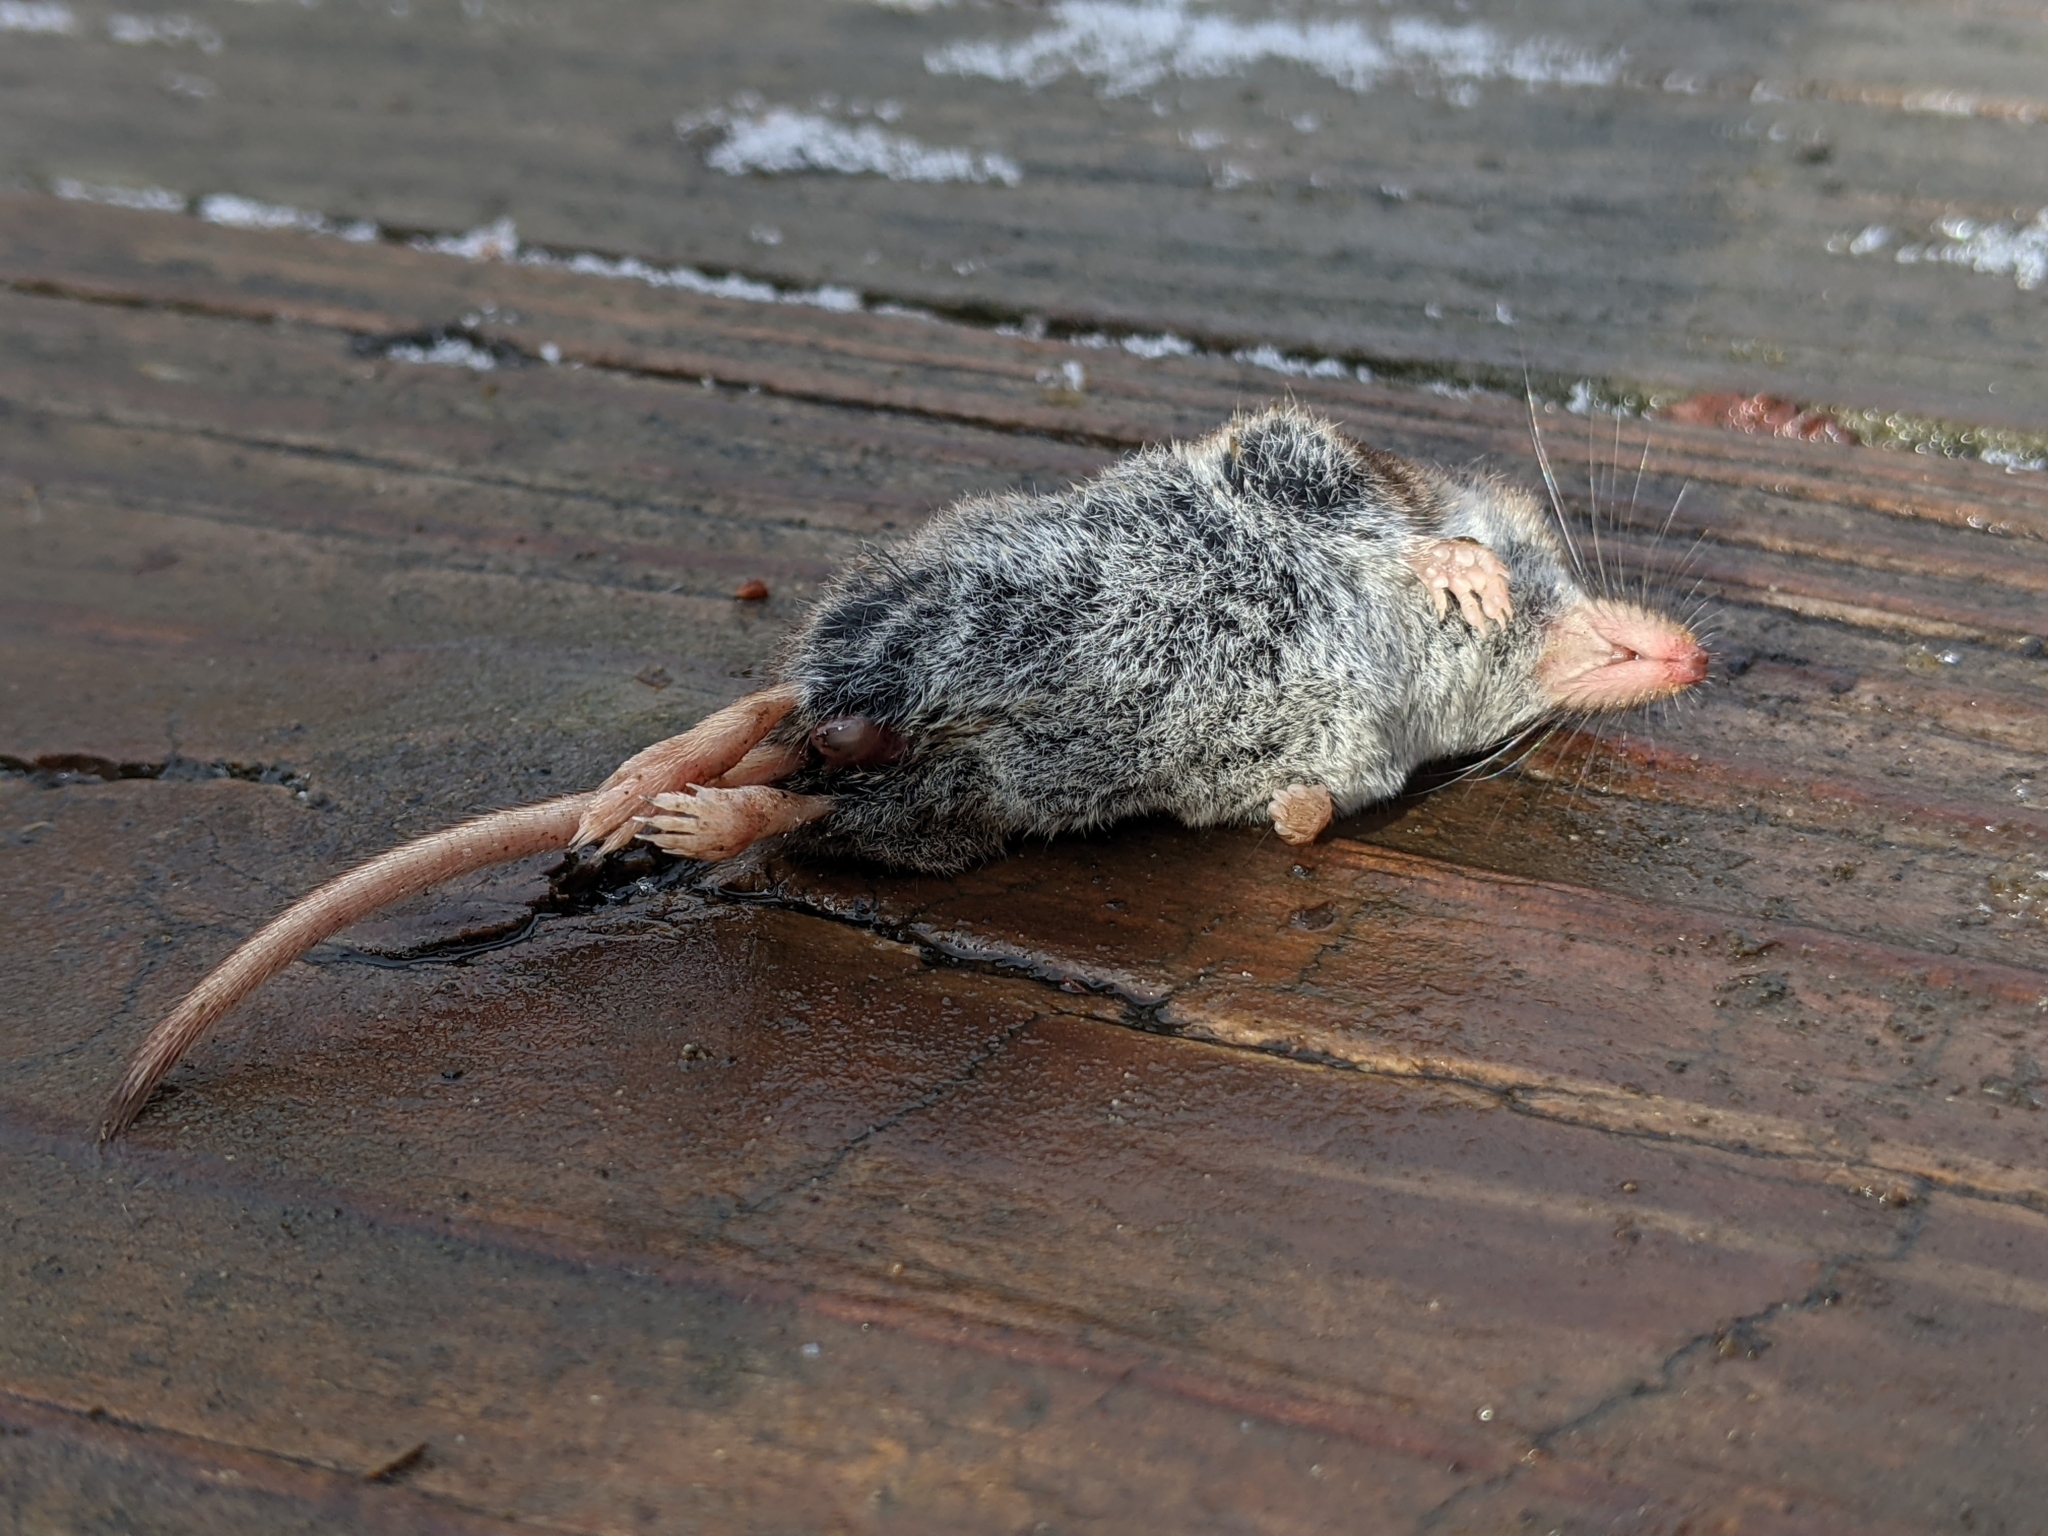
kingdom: Animalia
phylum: Chordata
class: Mammalia
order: Soricomorpha
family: Soricidae
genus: Sorex
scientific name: Sorex cinereus
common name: Cinereus shrew
